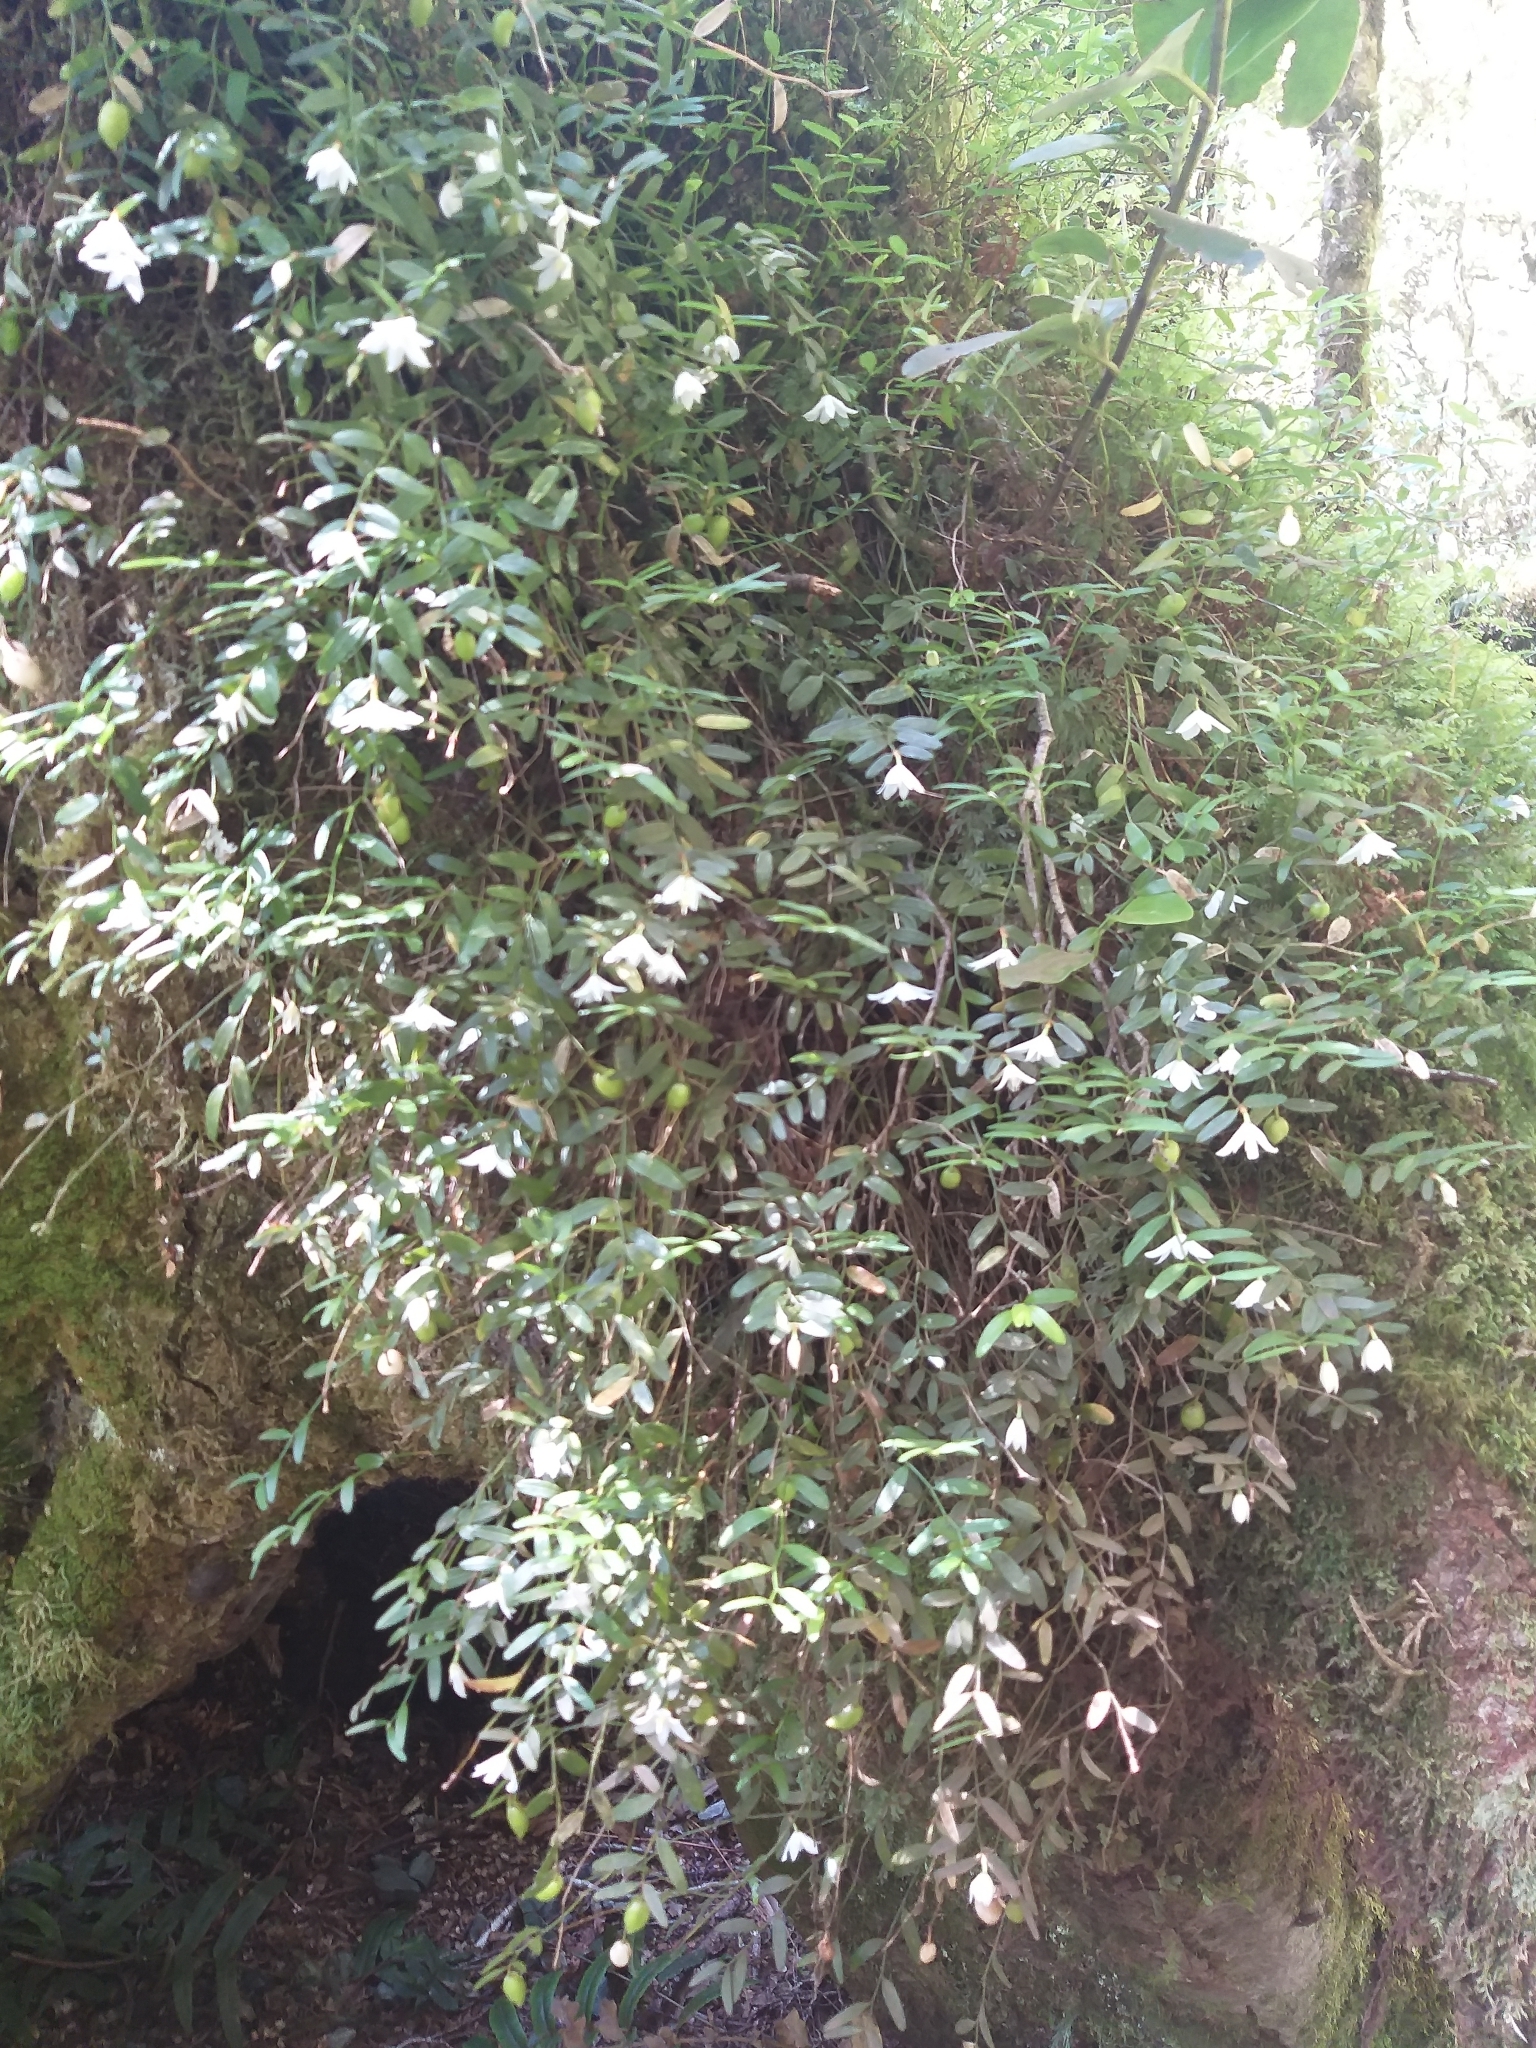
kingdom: Plantae
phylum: Tracheophyta
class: Liliopsida
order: Liliales
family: Alstroemeriaceae
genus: Luzuriaga
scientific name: Luzuriaga parviflora
